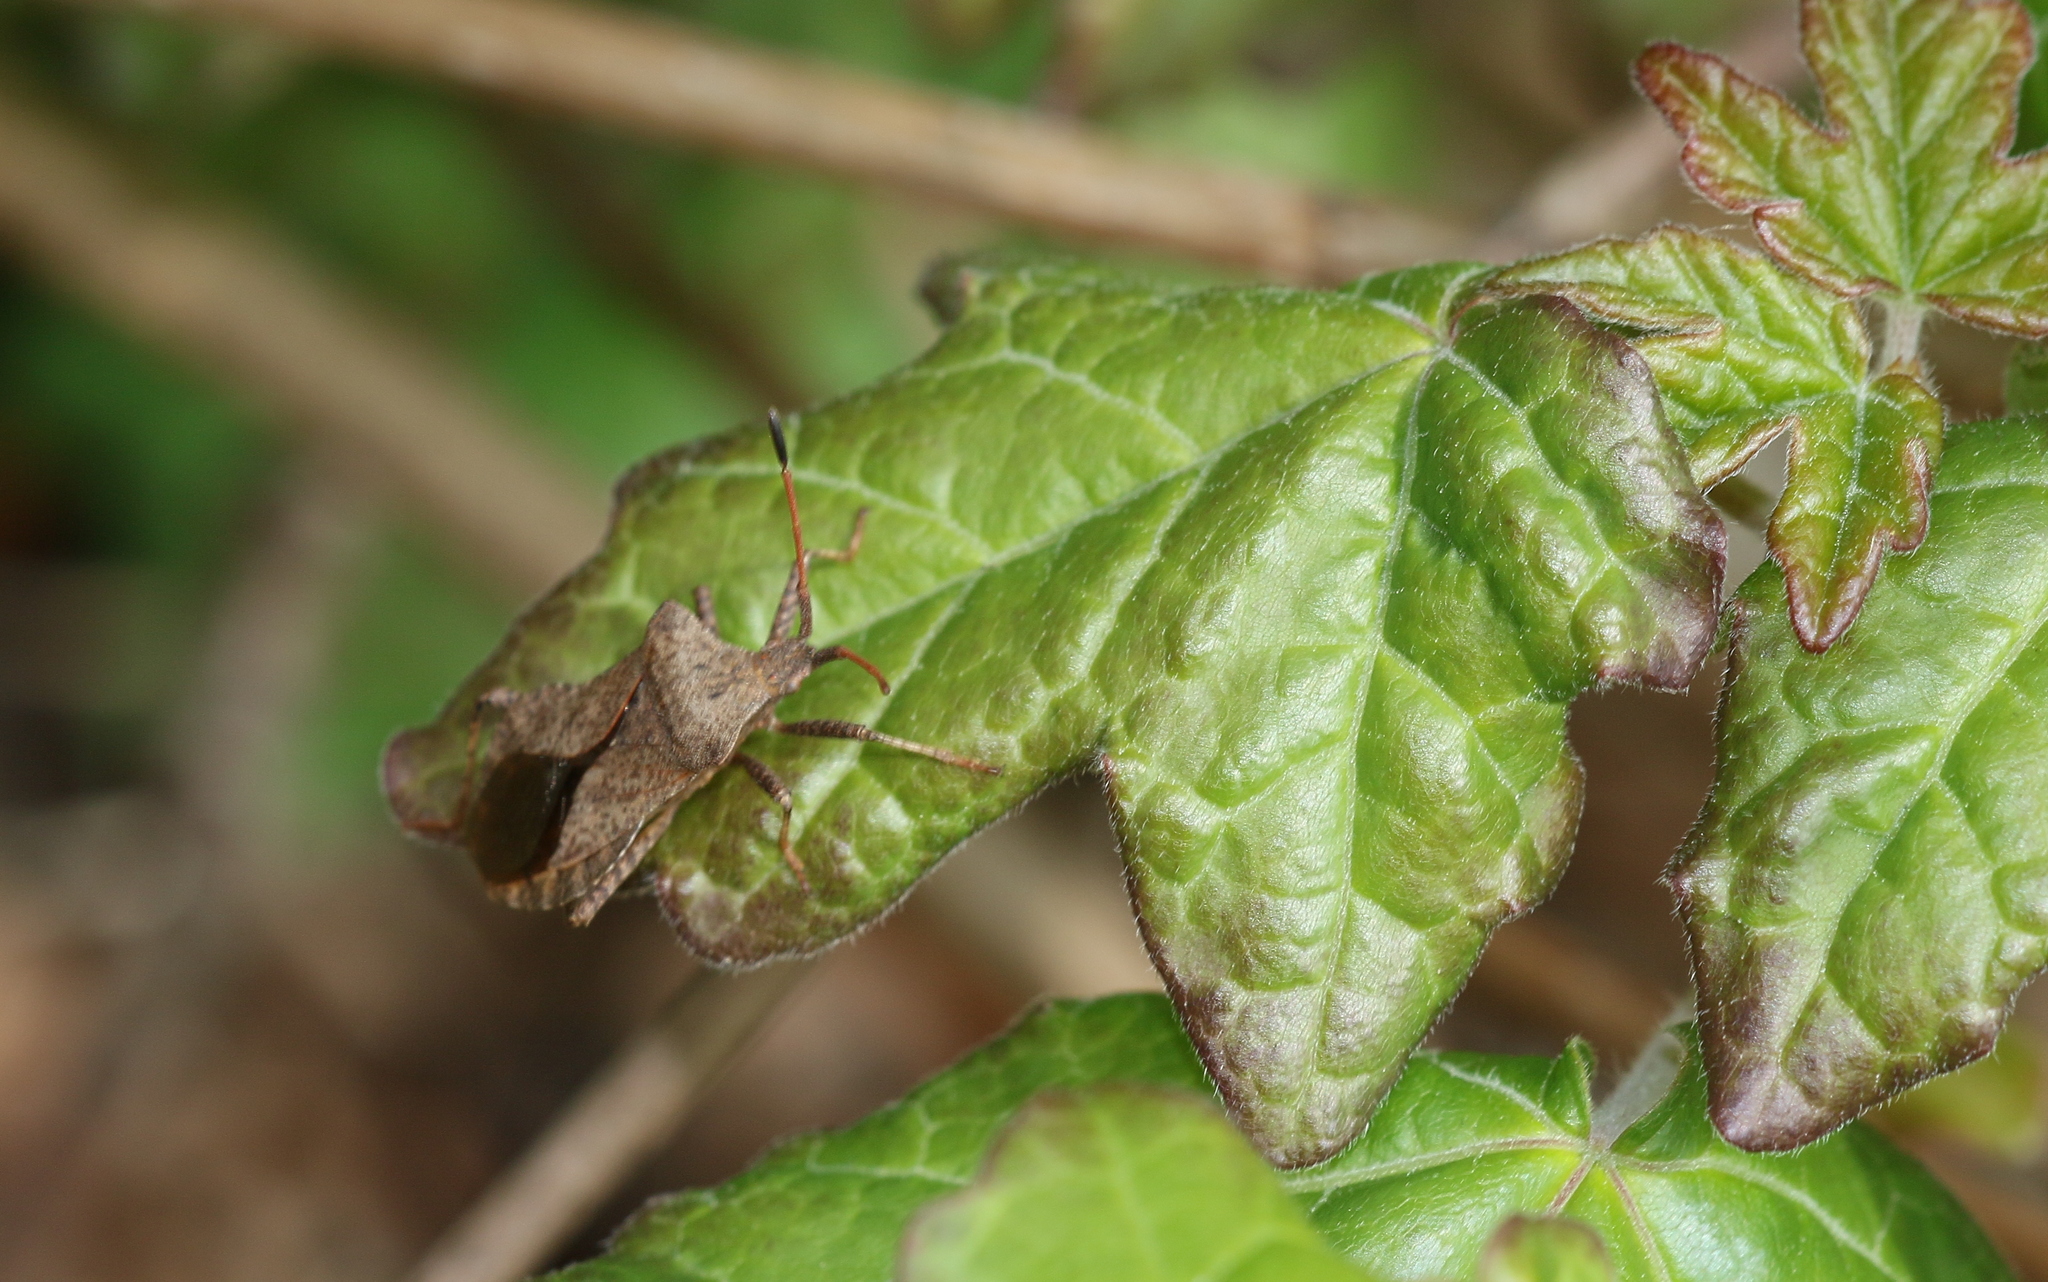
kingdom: Animalia
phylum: Arthropoda
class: Insecta
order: Hemiptera
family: Coreidae
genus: Coreus
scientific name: Coreus marginatus
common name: Dock bug
